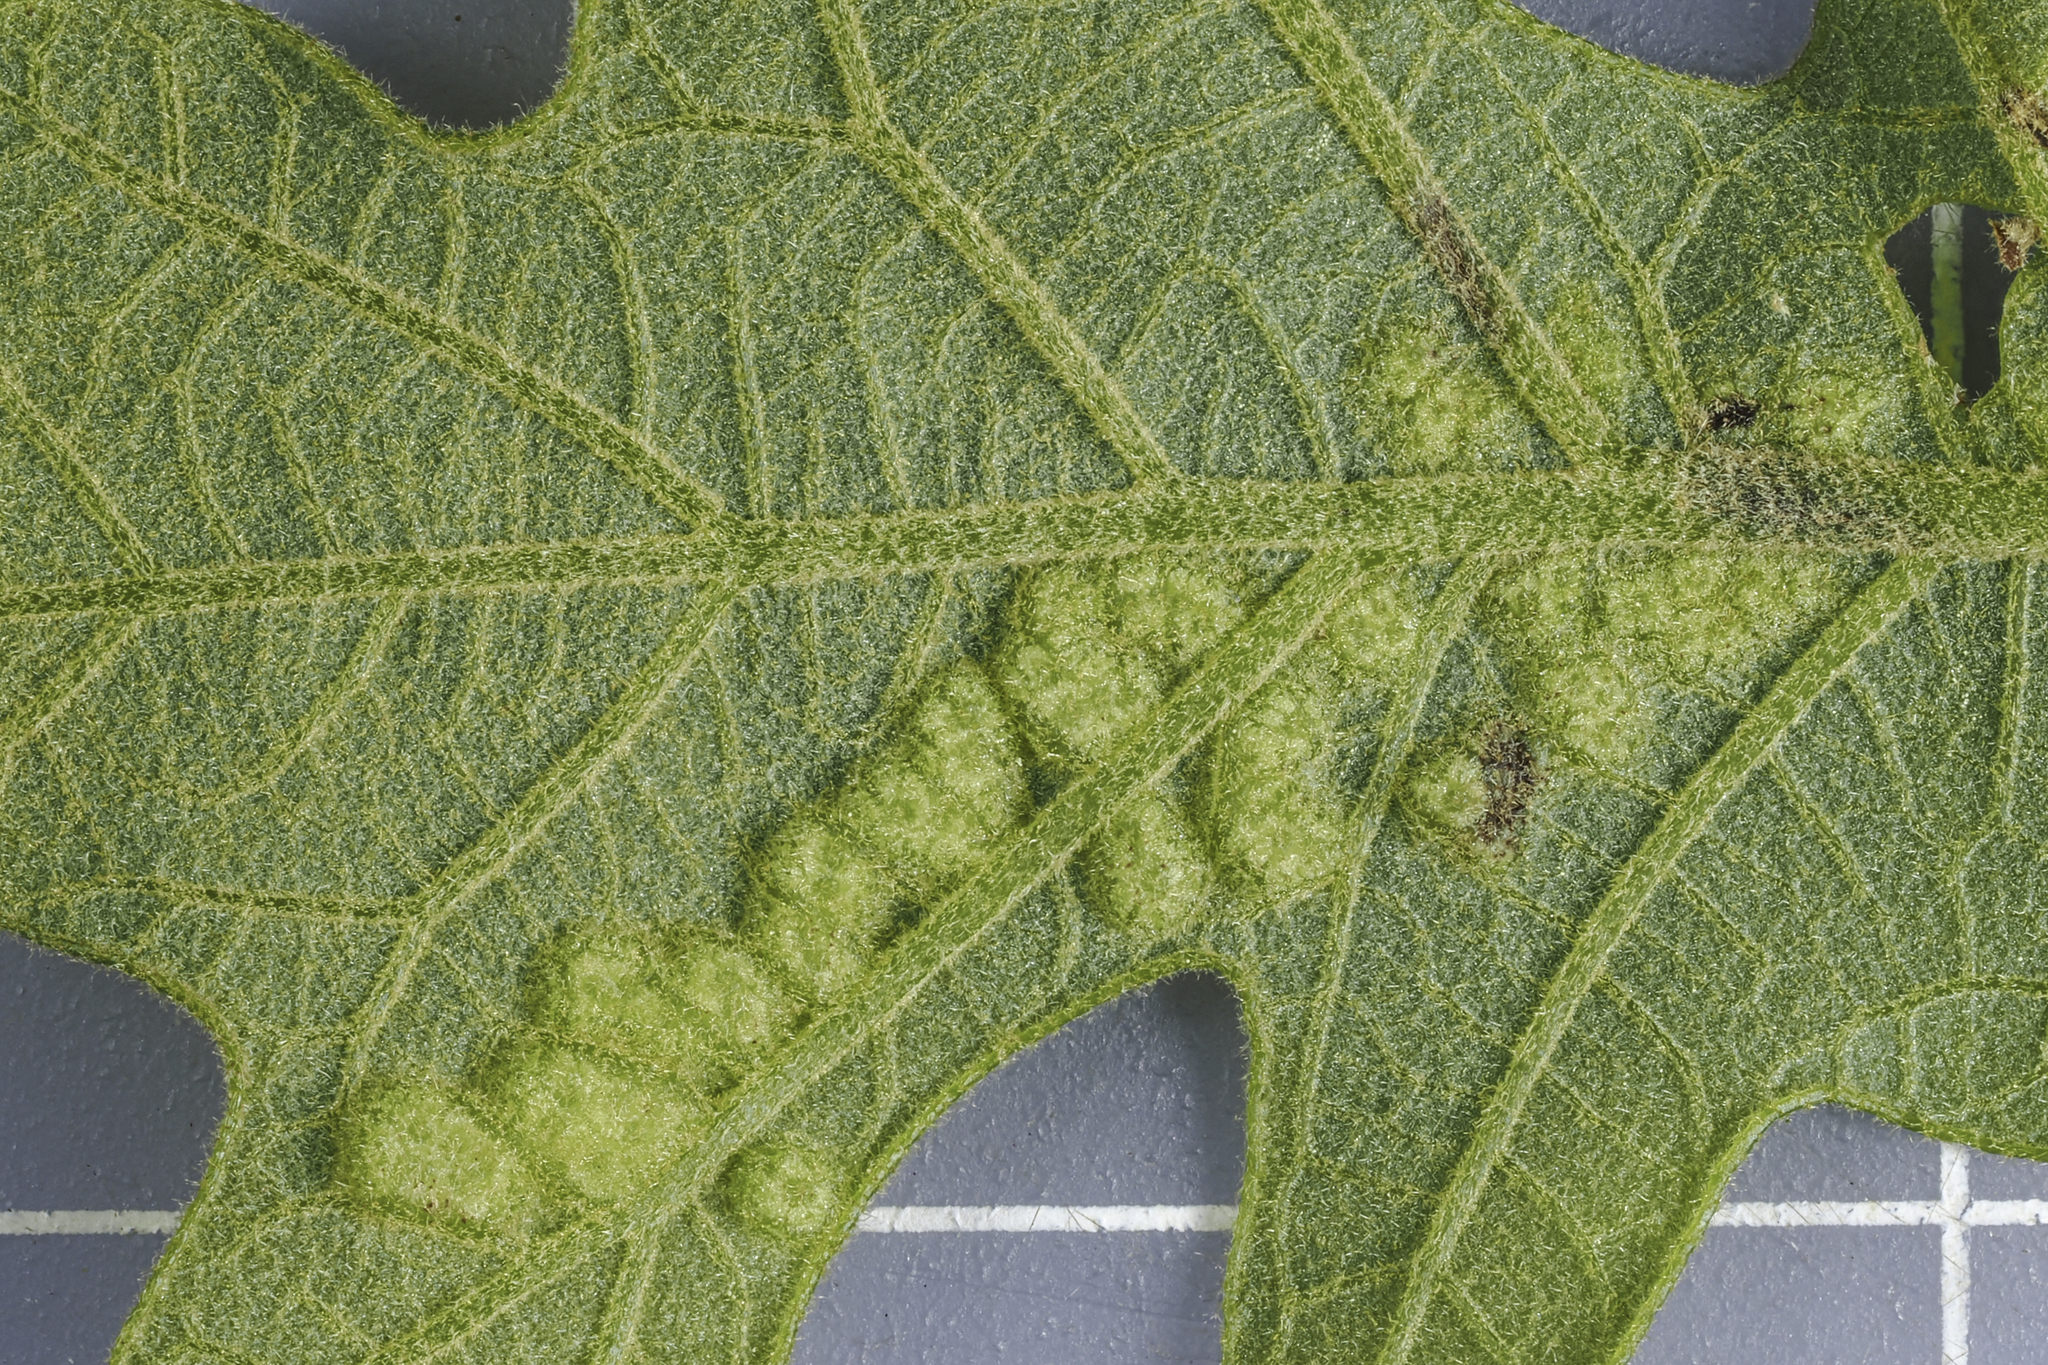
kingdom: Animalia
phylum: Arthropoda
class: Insecta
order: Hymenoptera
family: Cynipidae
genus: Neuroterus
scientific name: Neuroterus quercusirregularis
